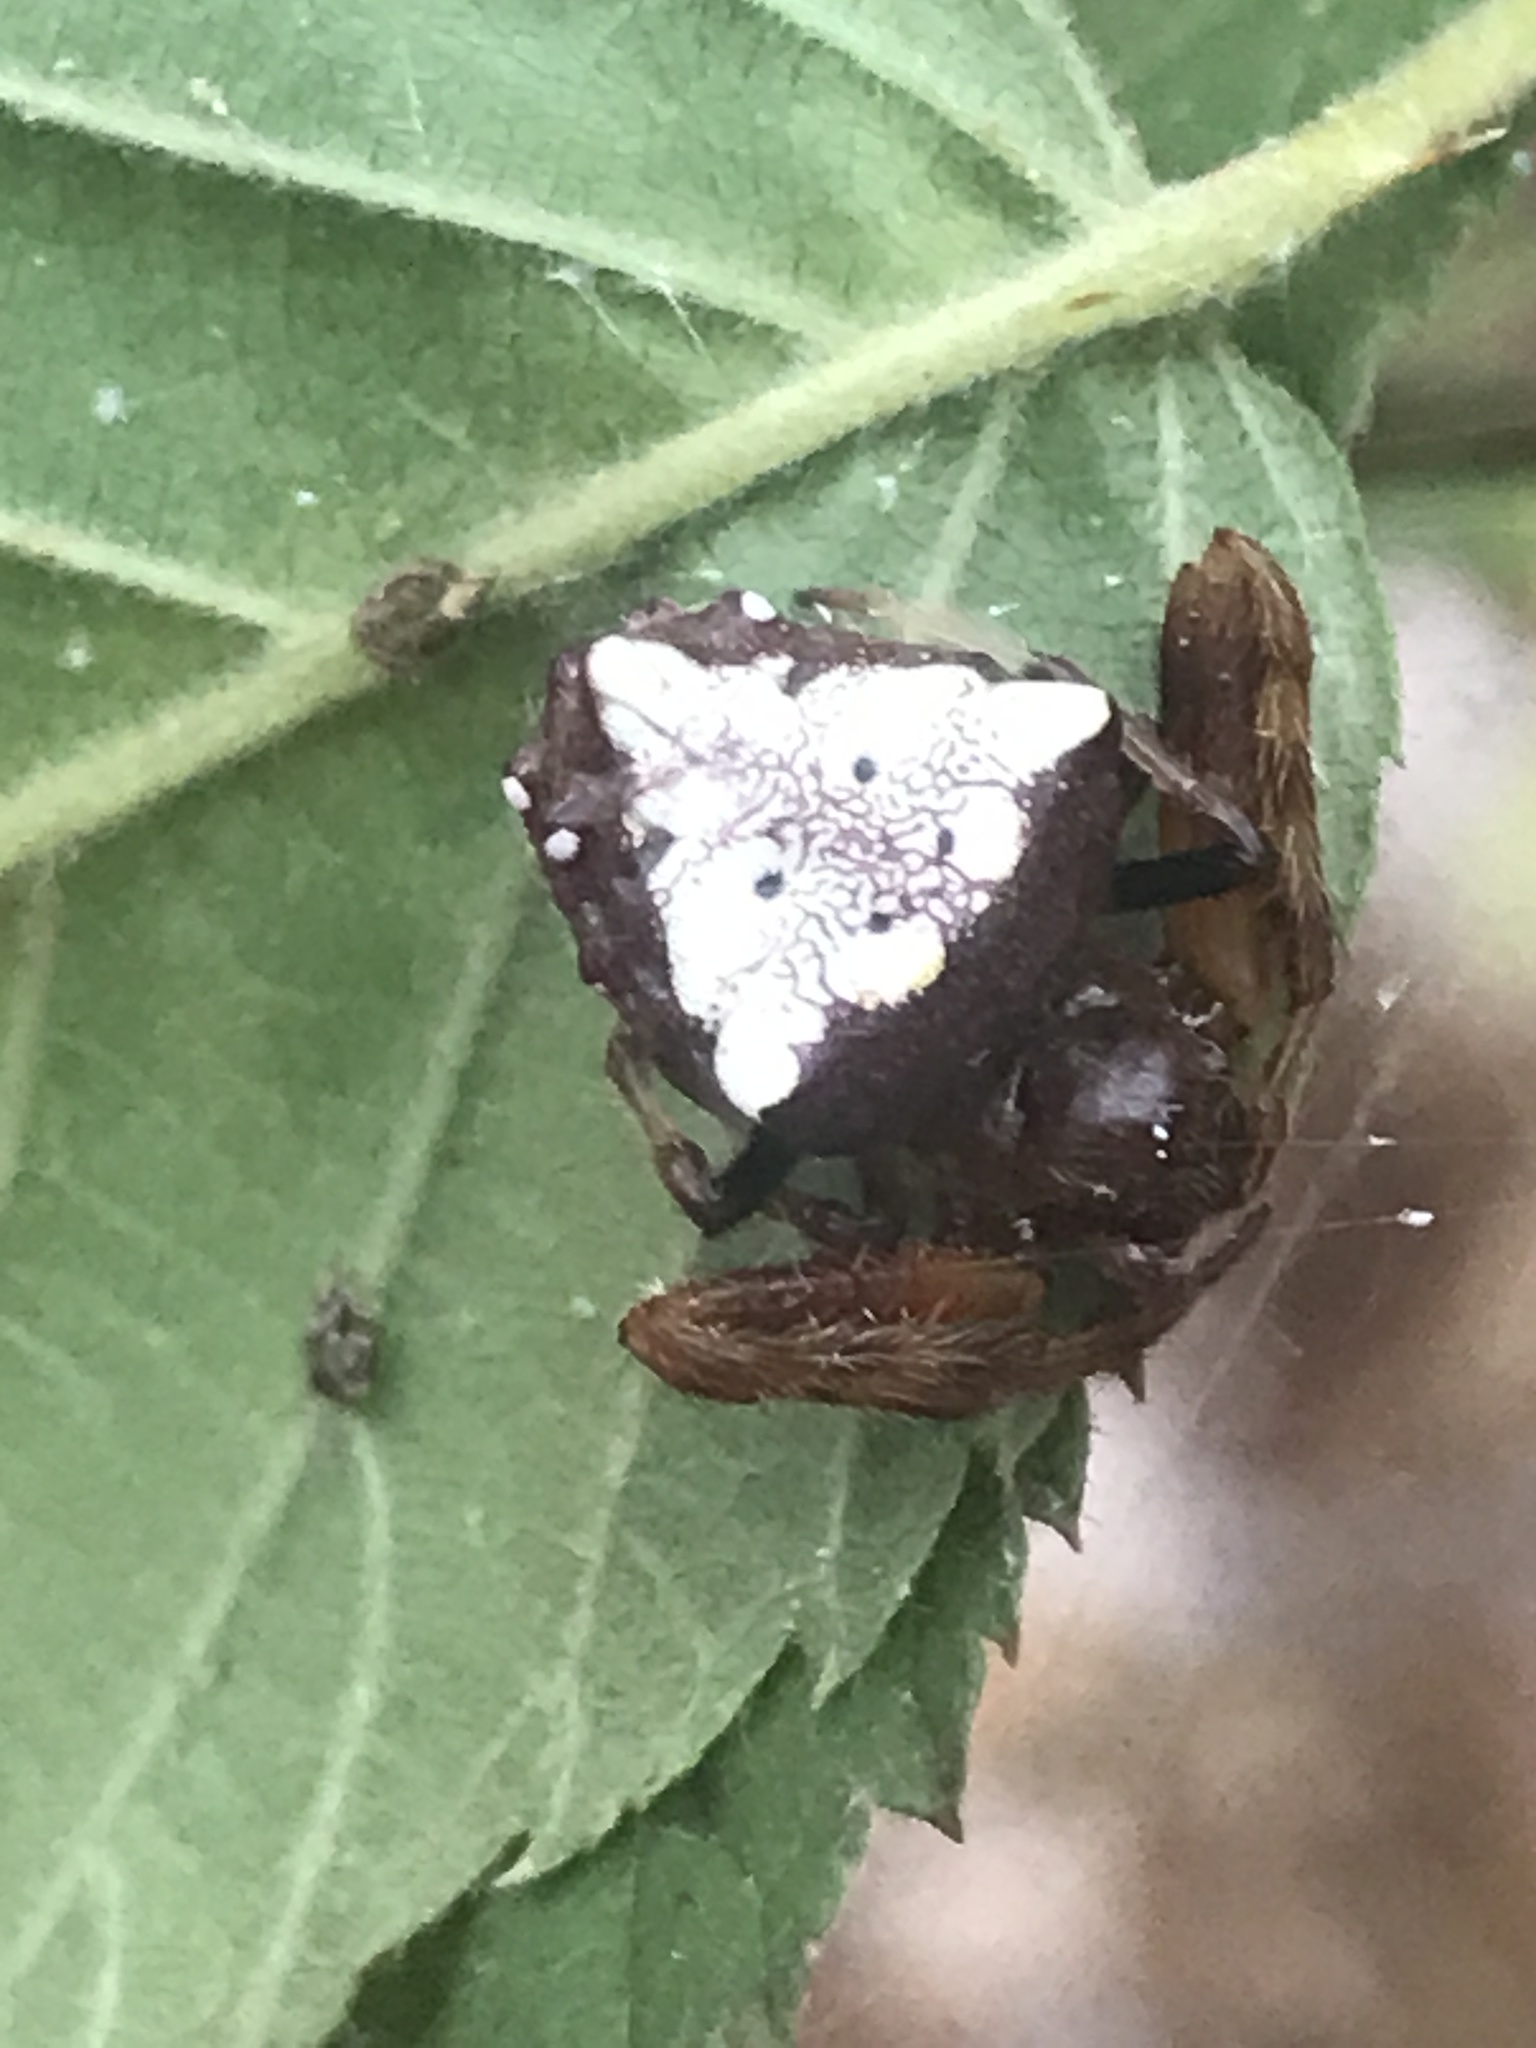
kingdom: Animalia
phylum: Arthropoda
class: Arachnida
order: Araneae
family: Araneidae
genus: Verrucosa
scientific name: Verrucosa arenata
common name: Orb weavers
